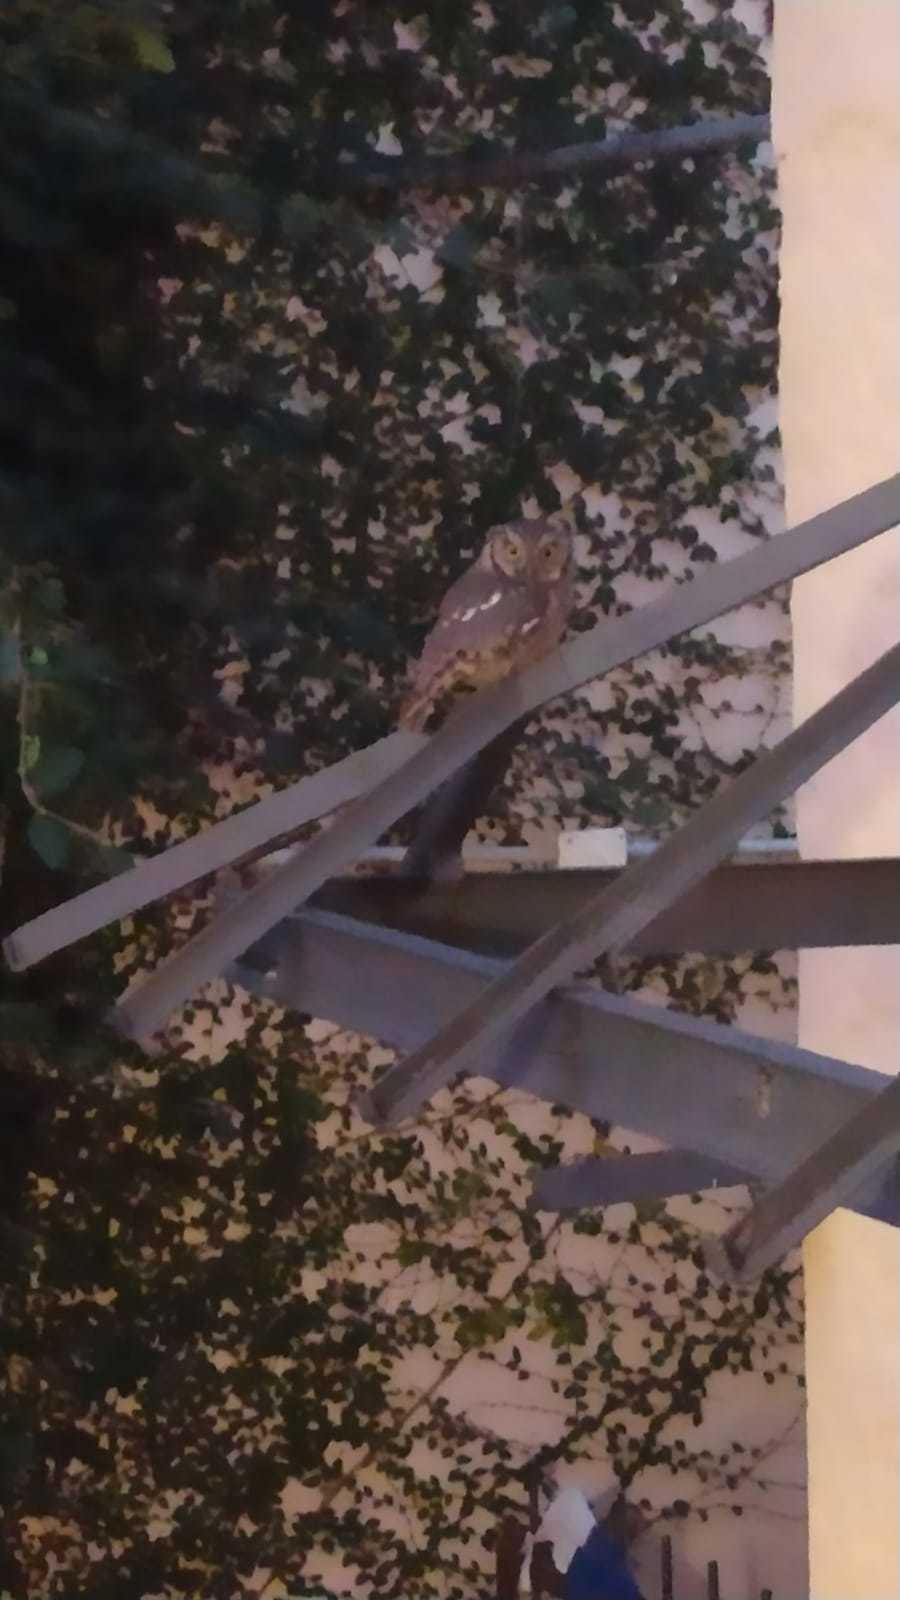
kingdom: Animalia
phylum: Chordata
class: Aves
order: Strigiformes
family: Strigidae
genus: Megascops
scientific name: Megascops choliba
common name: Tropical screech-owl
